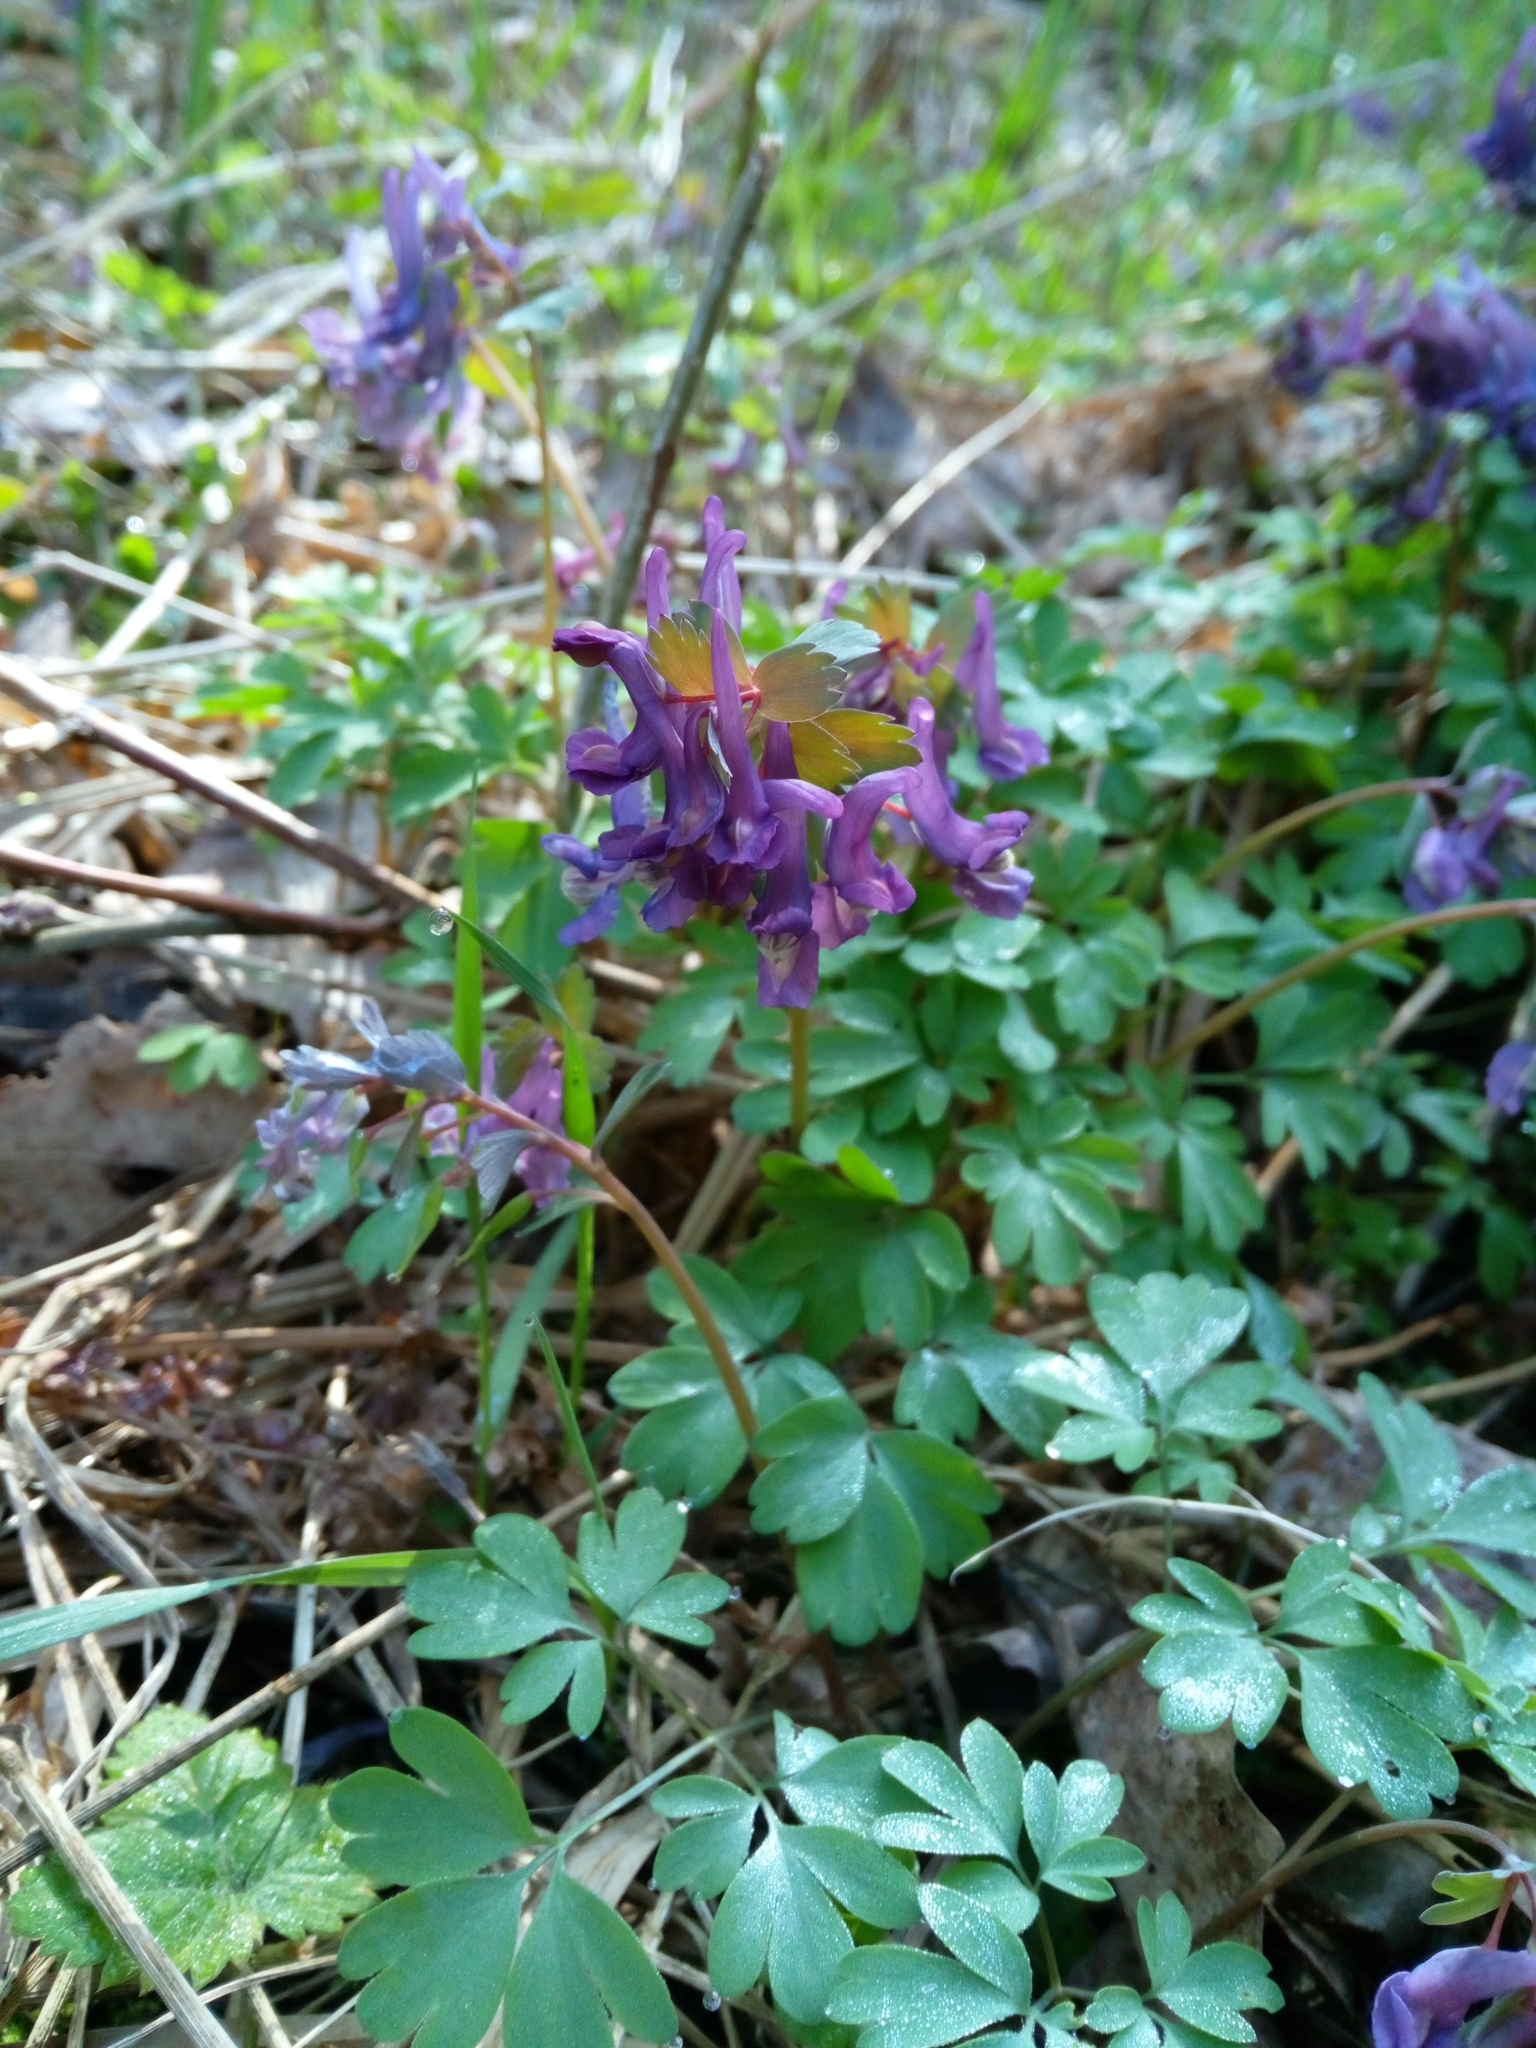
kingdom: Plantae
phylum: Tracheophyta
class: Magnoliopsida
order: Ranunculales
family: Papaveraceae
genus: Corydalis
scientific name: Corydalis solida
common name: Bird-in-a-bush
